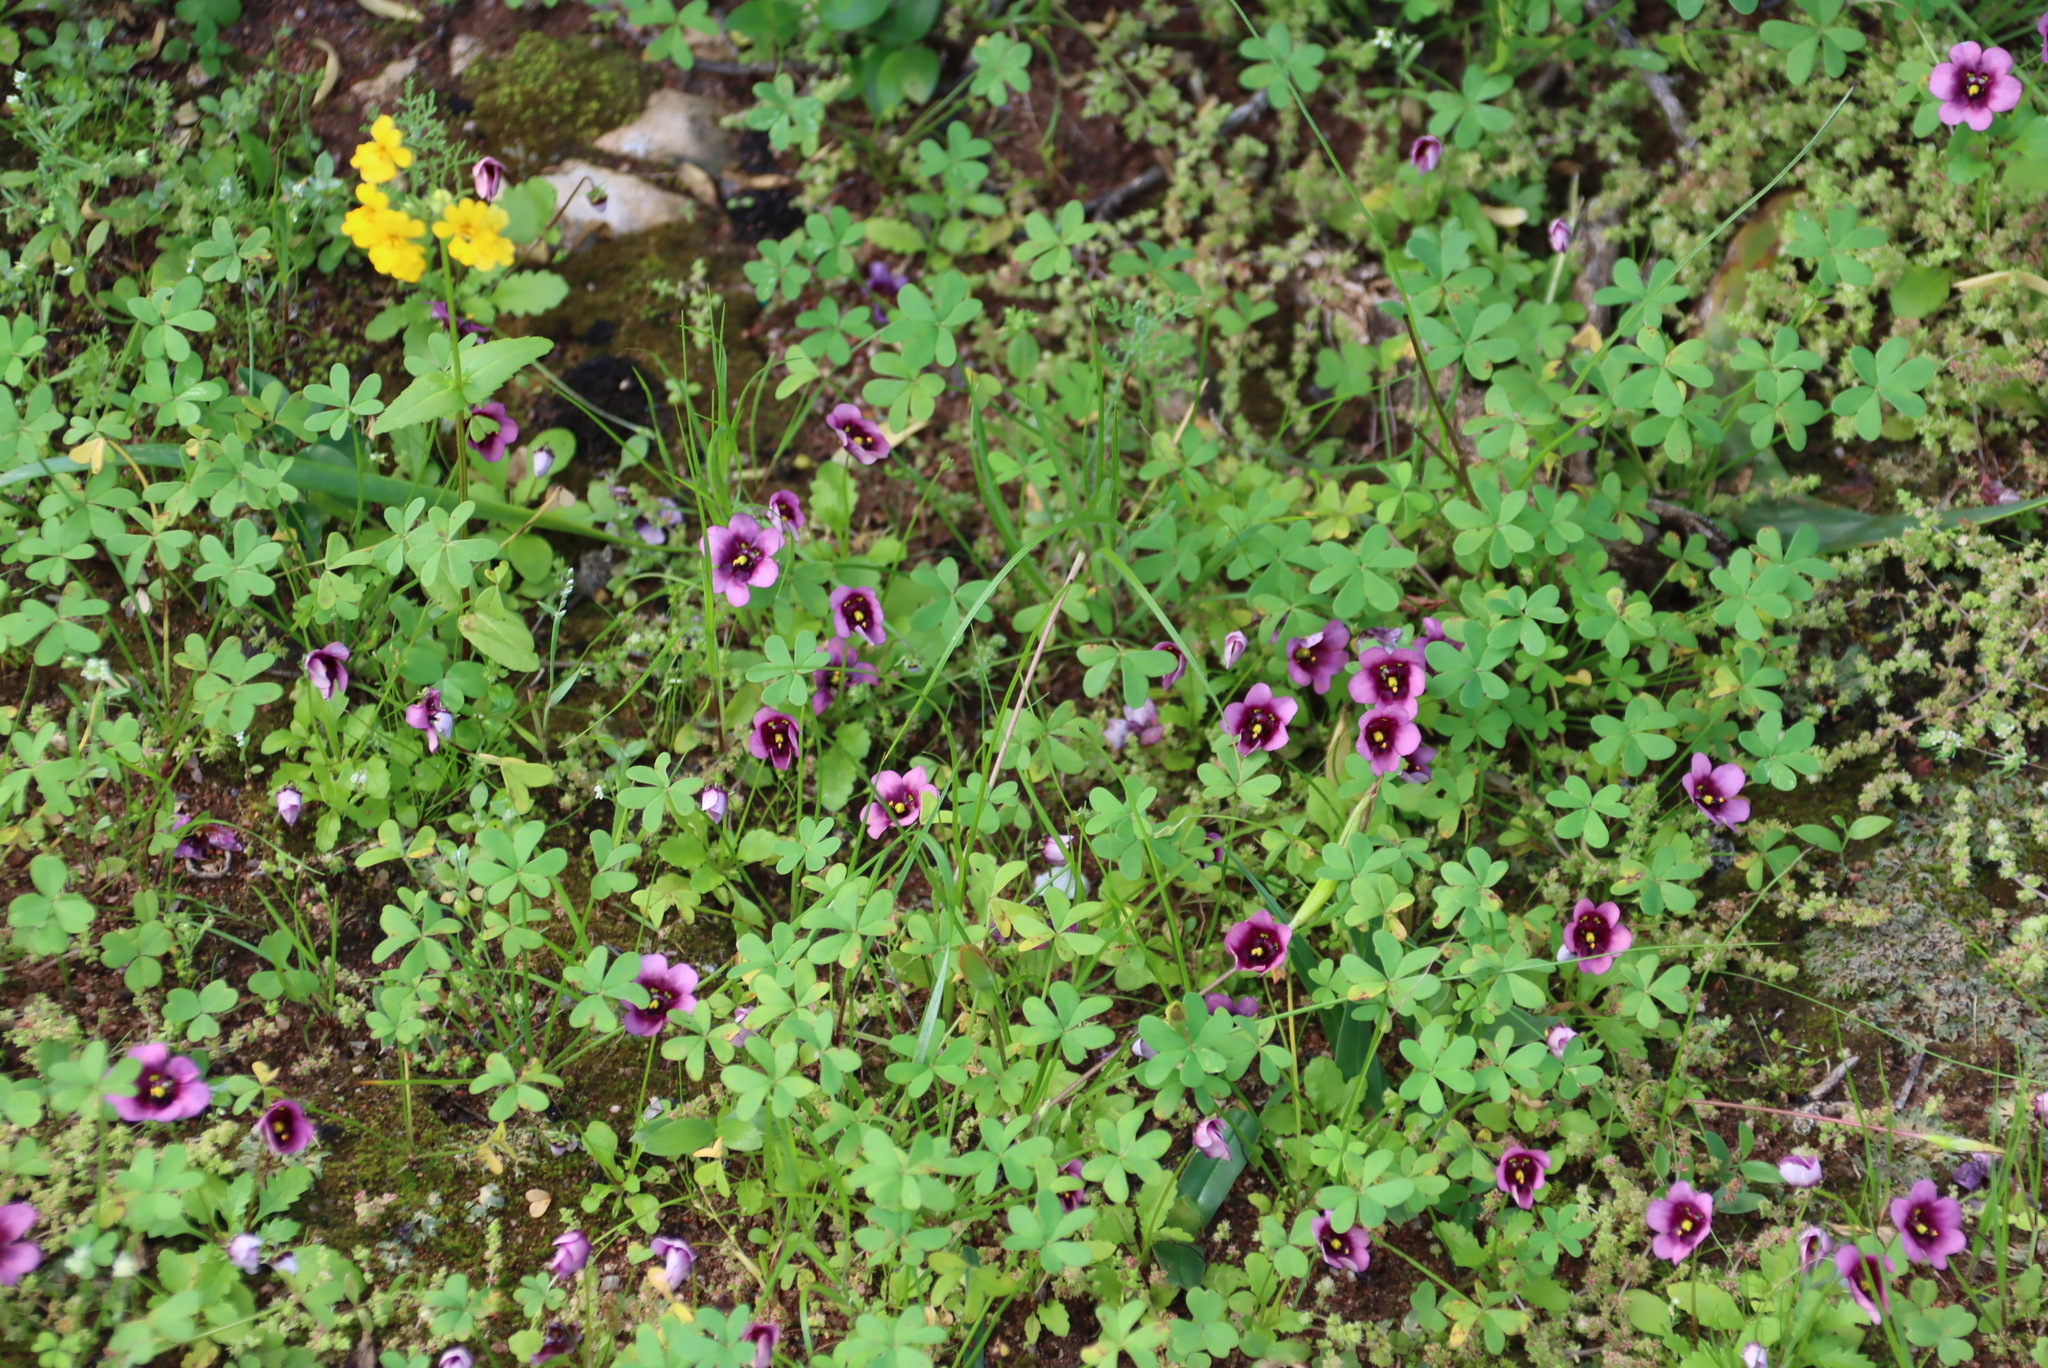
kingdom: Plantae
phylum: Tracheophyta
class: Magnoliopsida
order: Lamiales
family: Scrophulariaceae
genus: Diascia
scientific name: Diascia capensis
